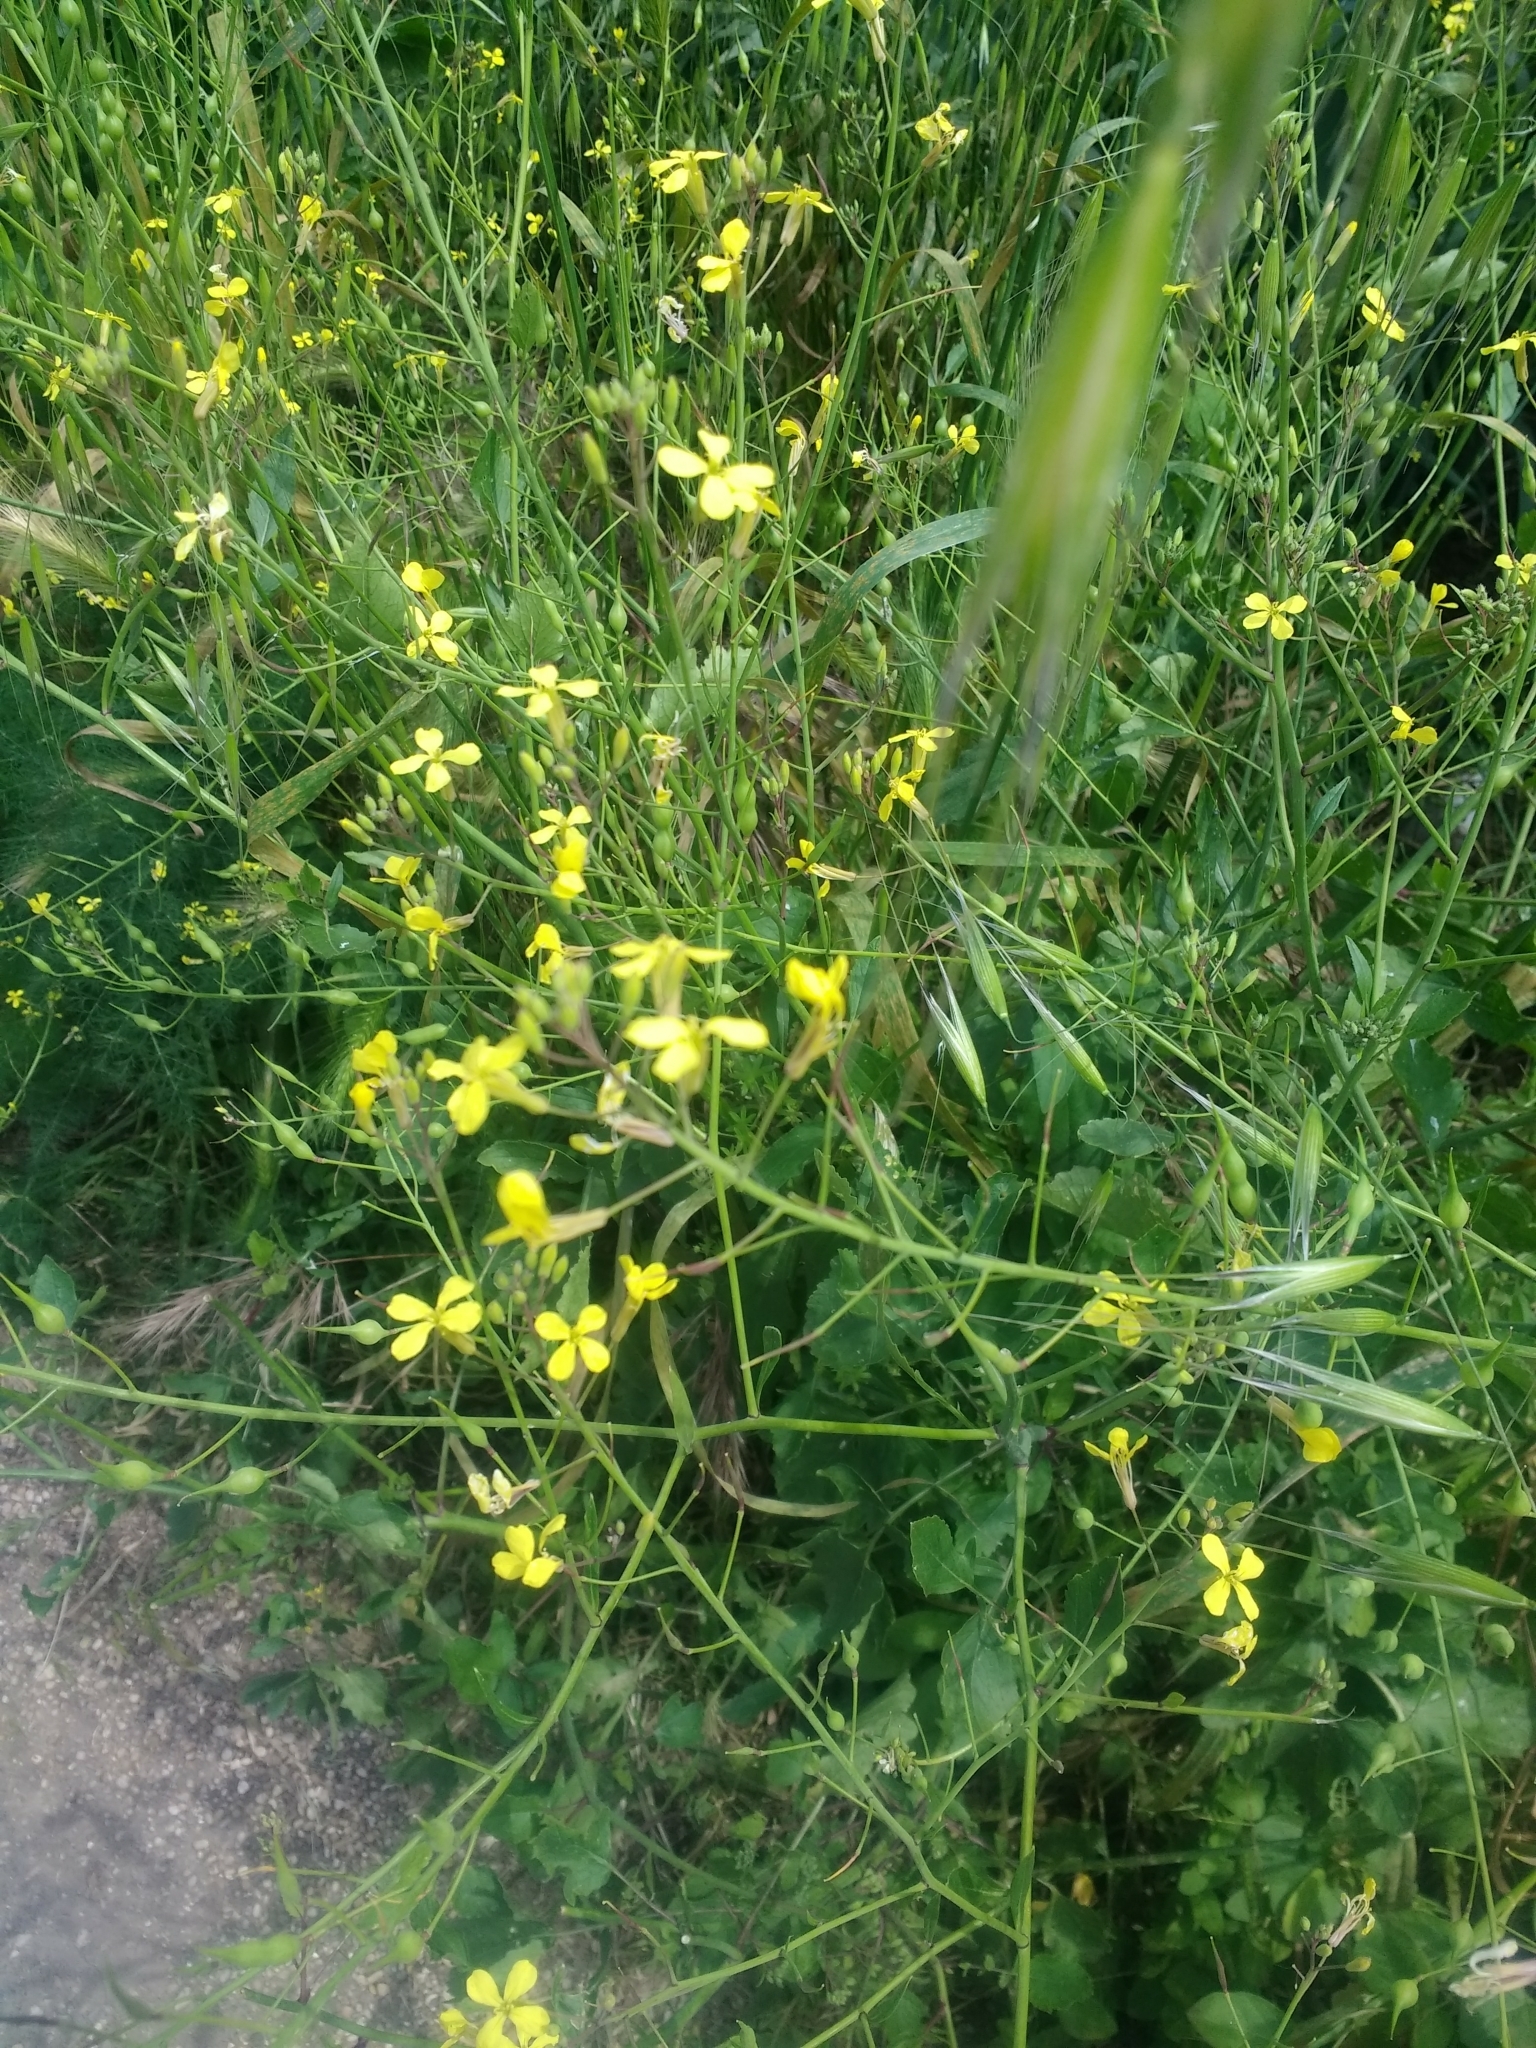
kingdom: Plantae
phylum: Tracheophyta
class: Magnoliopsida
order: Brassicales
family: Brassicaceae
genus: Raphanus
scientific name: Raphanus raphanistrum
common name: Wild radish
